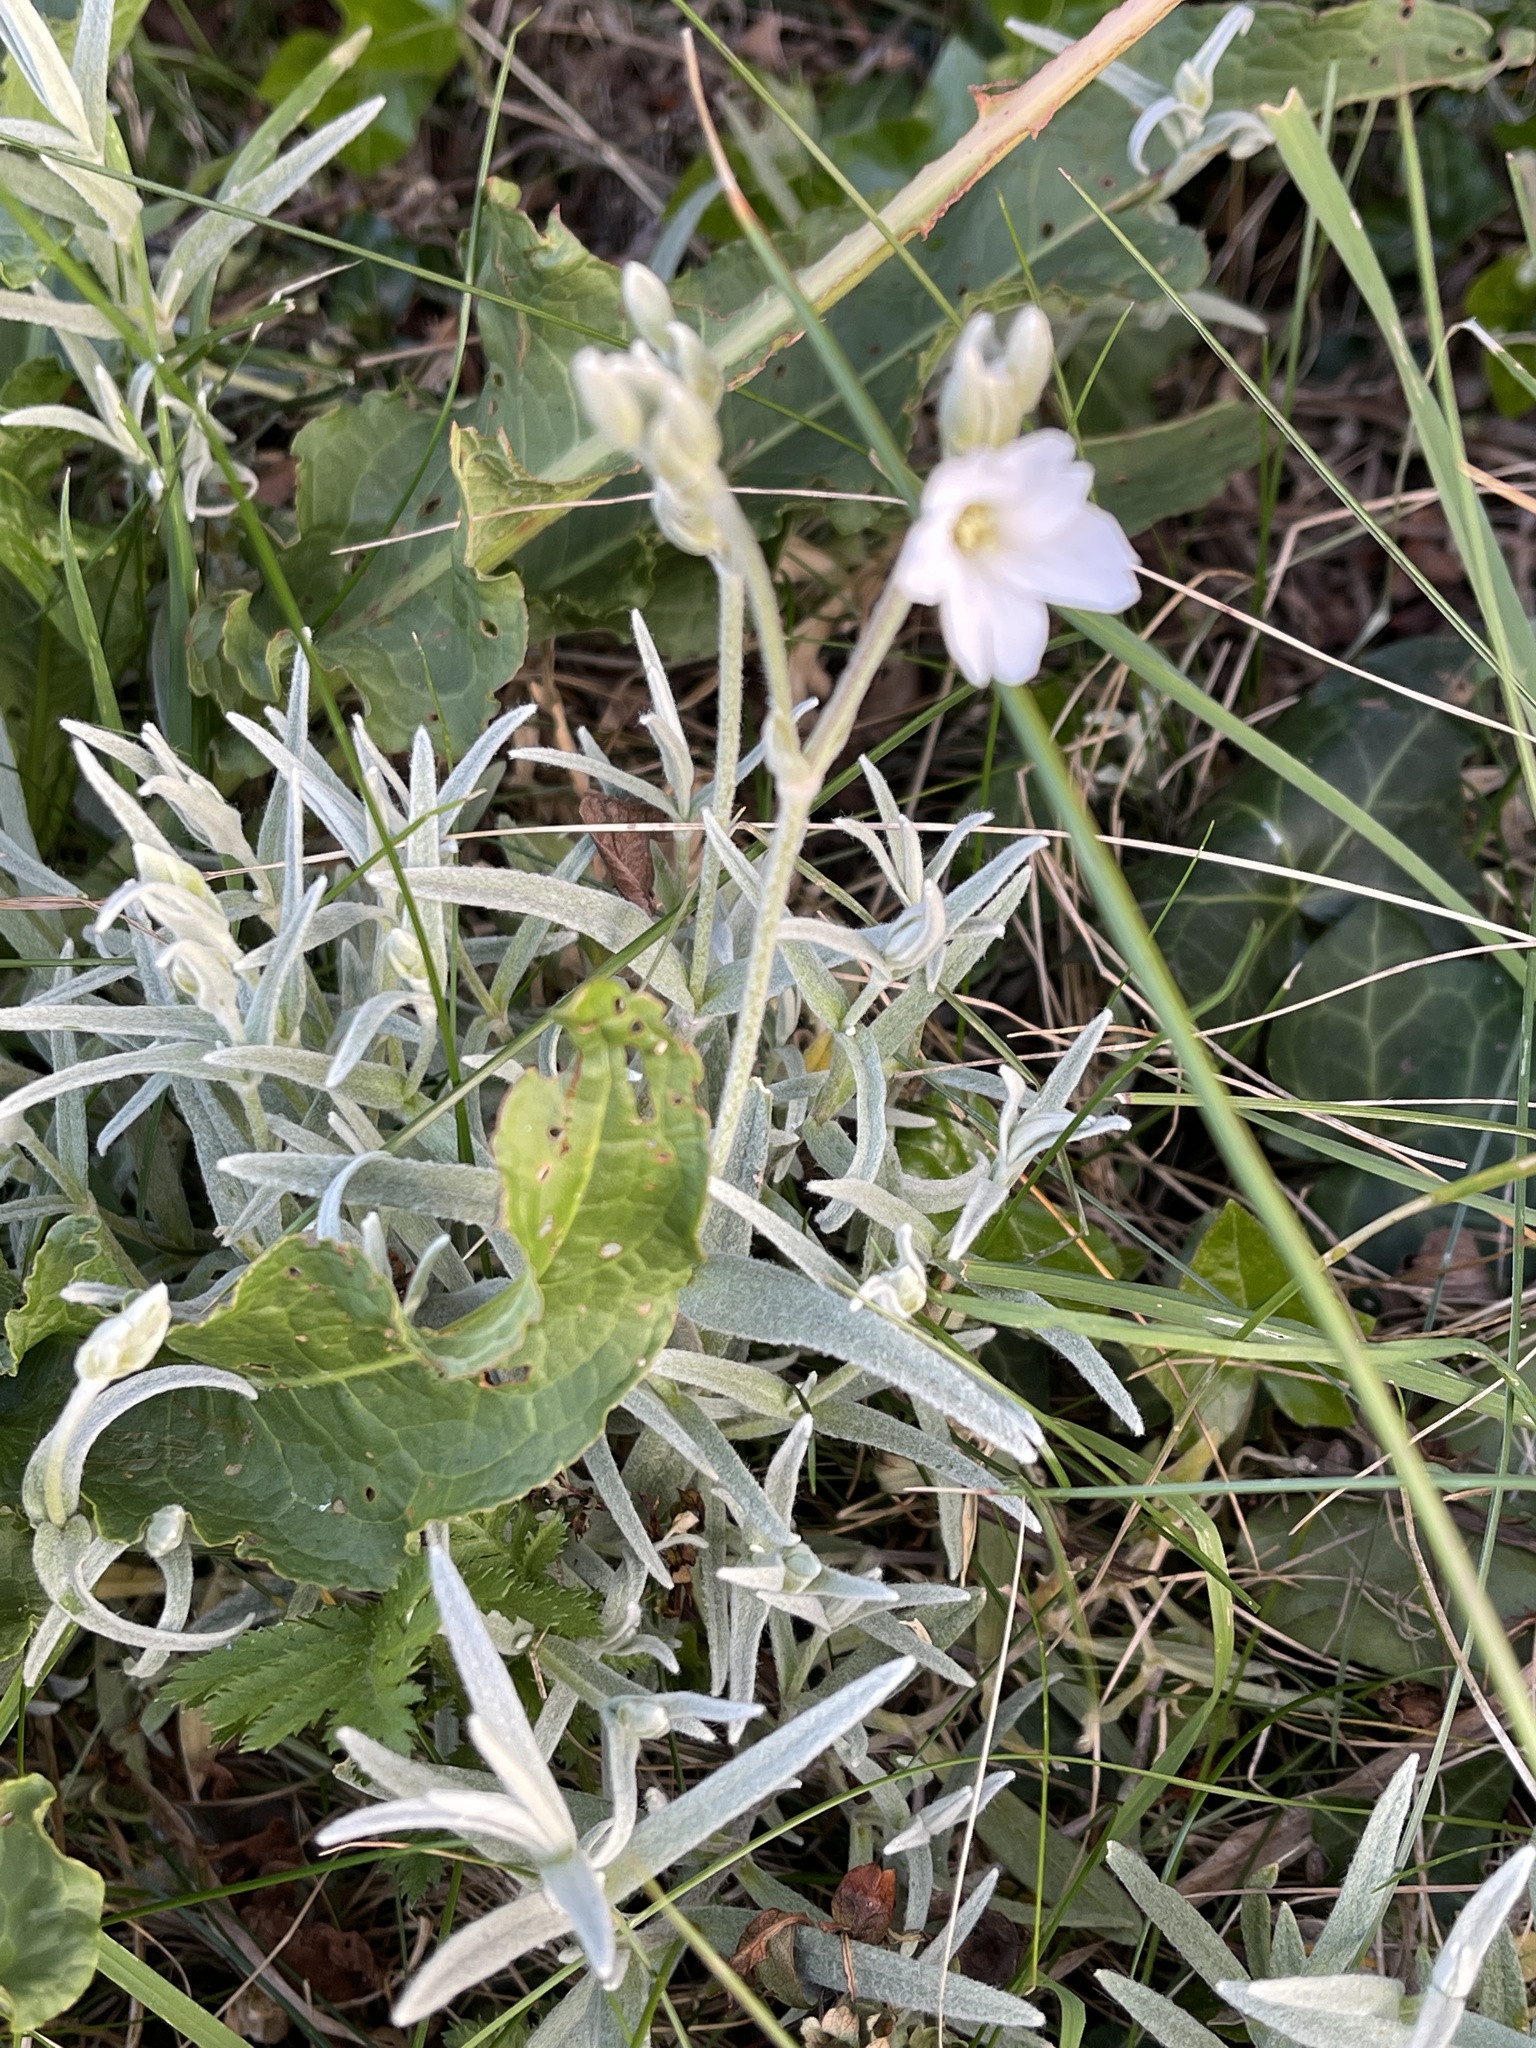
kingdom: Plantae
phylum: Tracheophyta
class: Magnoliopsida
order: Caryophyllales
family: Caryophyllaceae
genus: Cerastium
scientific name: Cerastium tomentosum
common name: Snow-in-summer
